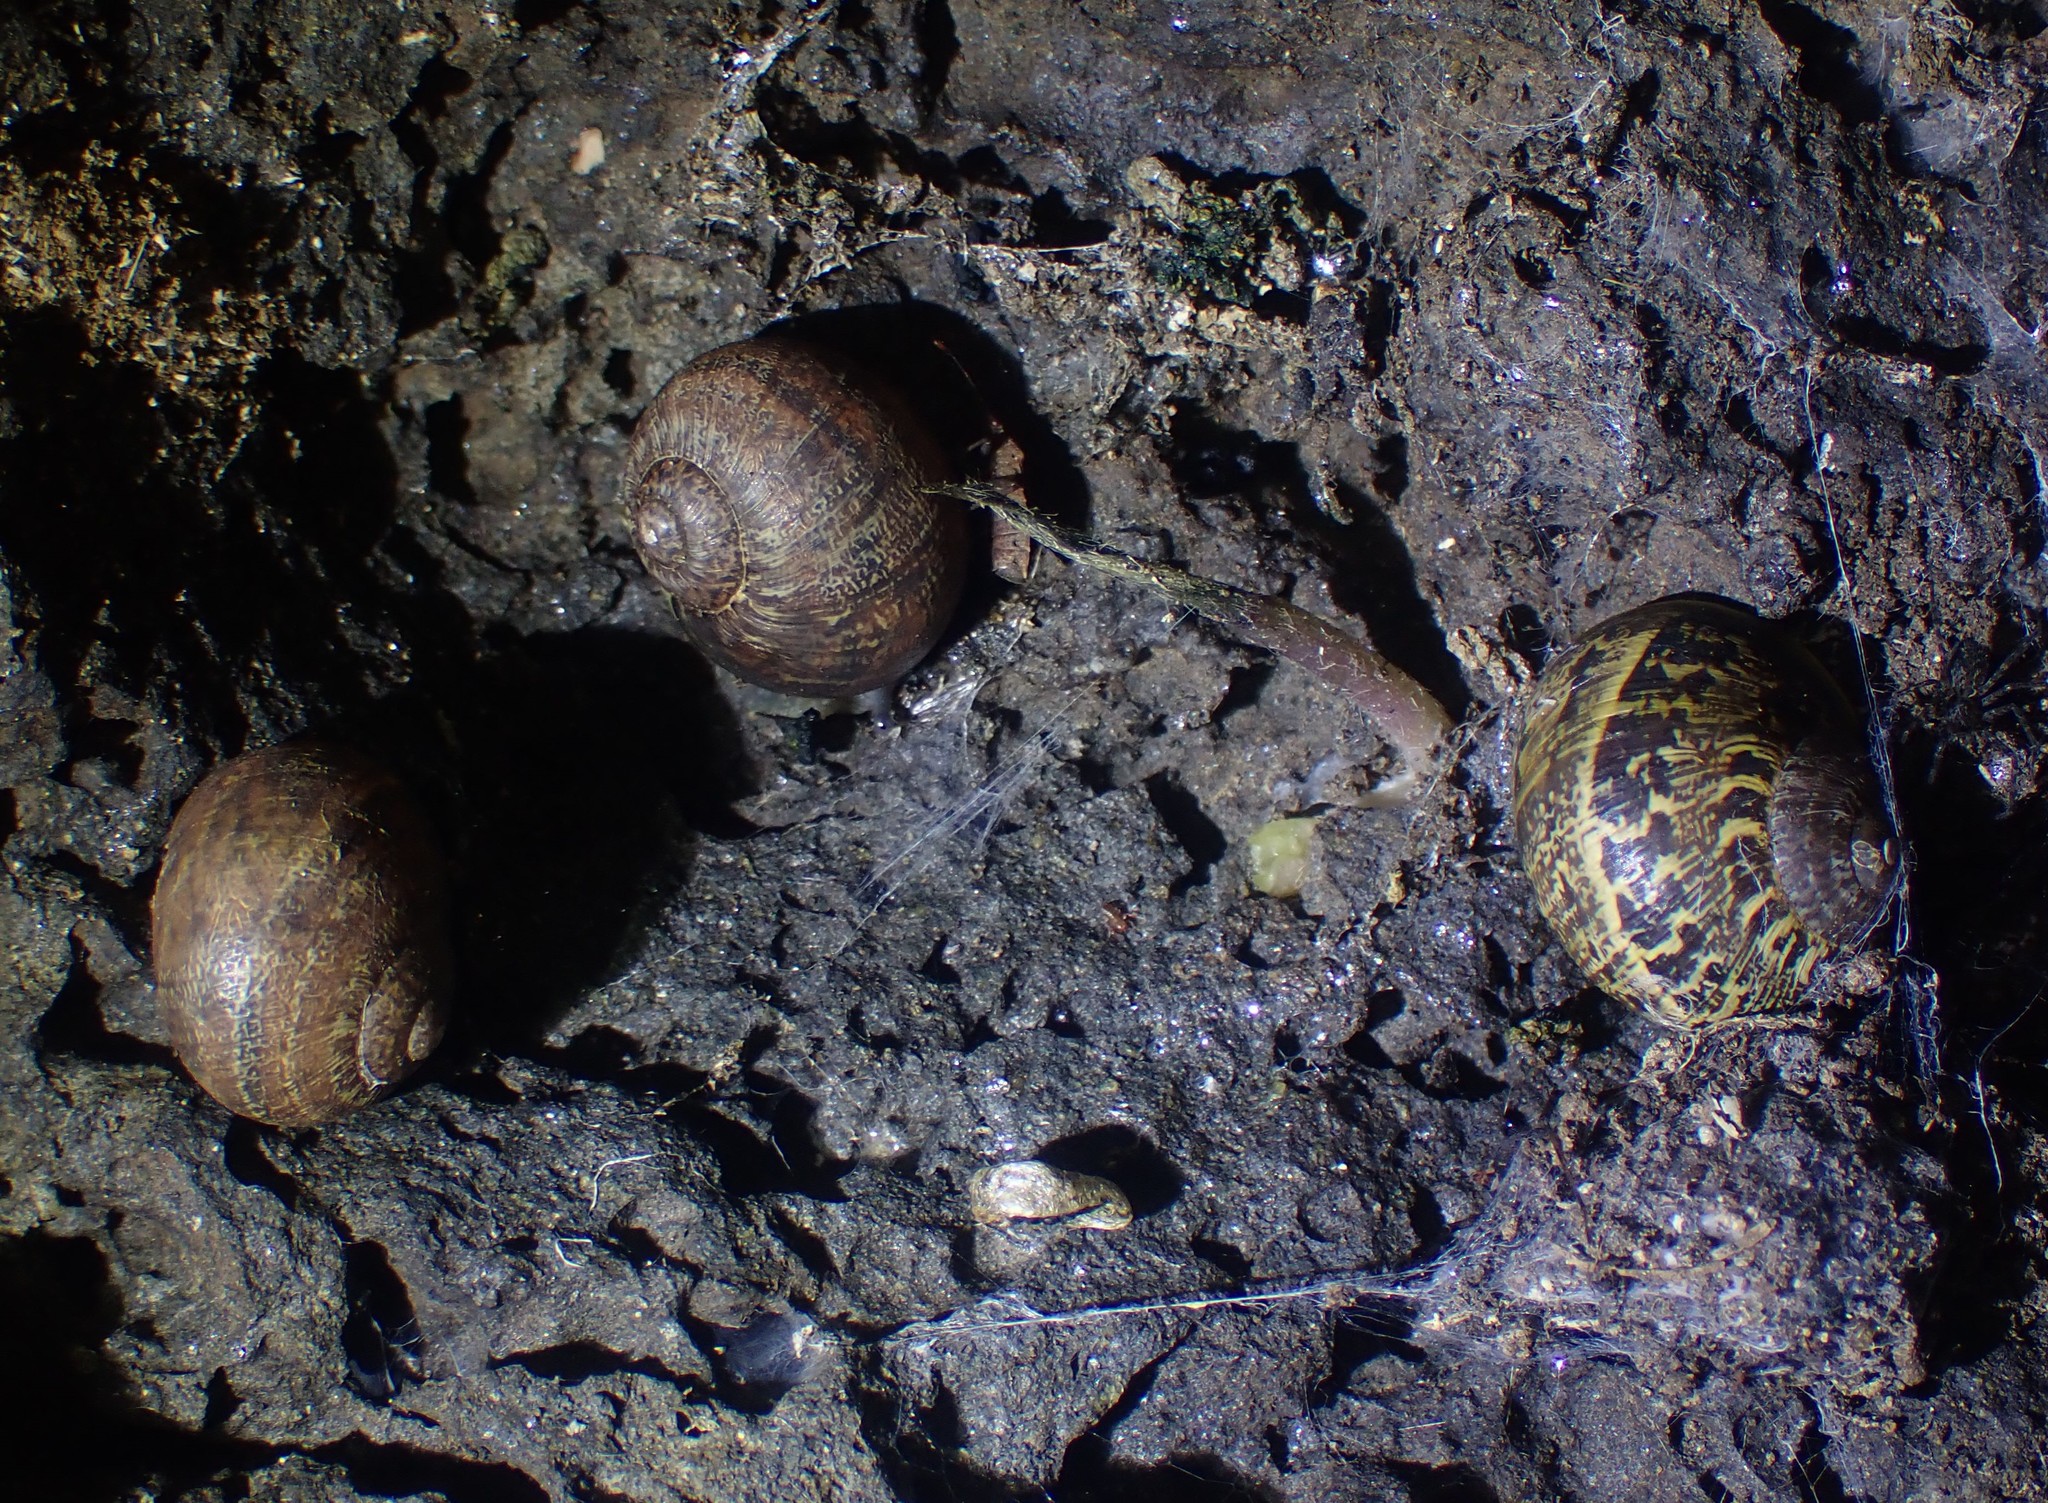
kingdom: Animalia
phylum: Mollusca
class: Gastropoda
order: Stylommatophora
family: Helicidae
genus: Cornu
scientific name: Cornu aspersum
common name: Brown garden snail
